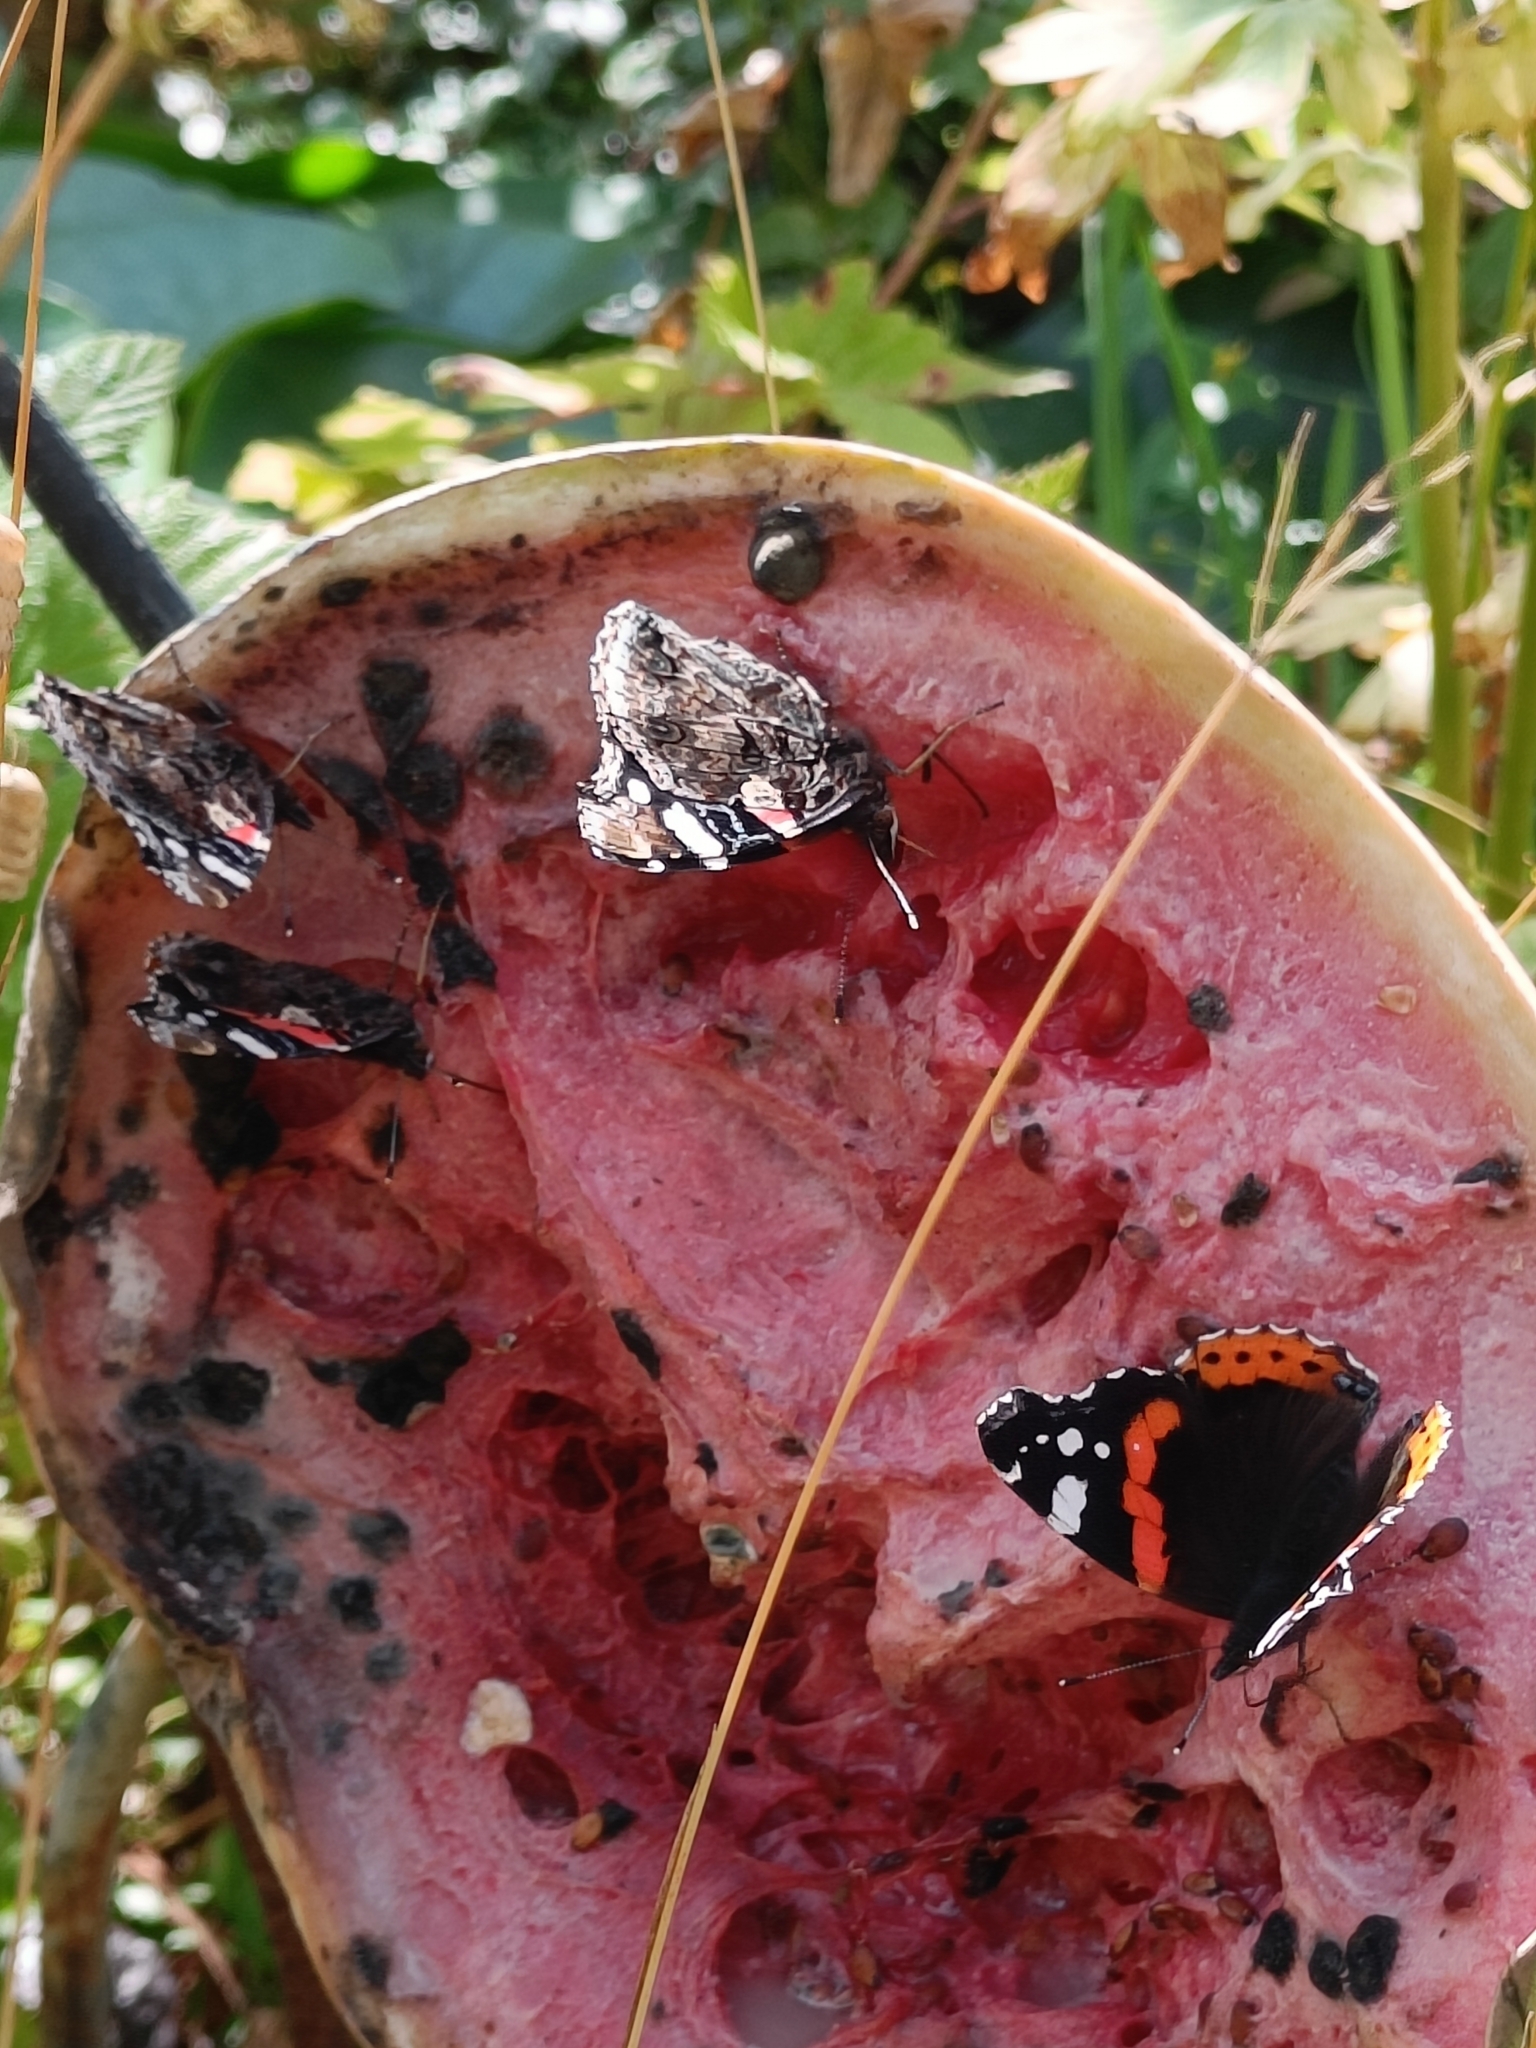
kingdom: Animalia
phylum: Arthropoda
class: Insecta
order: Lepidoptera
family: Nymphalidae
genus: Vanessa
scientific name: Vanessa atalanta
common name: Red admiral
